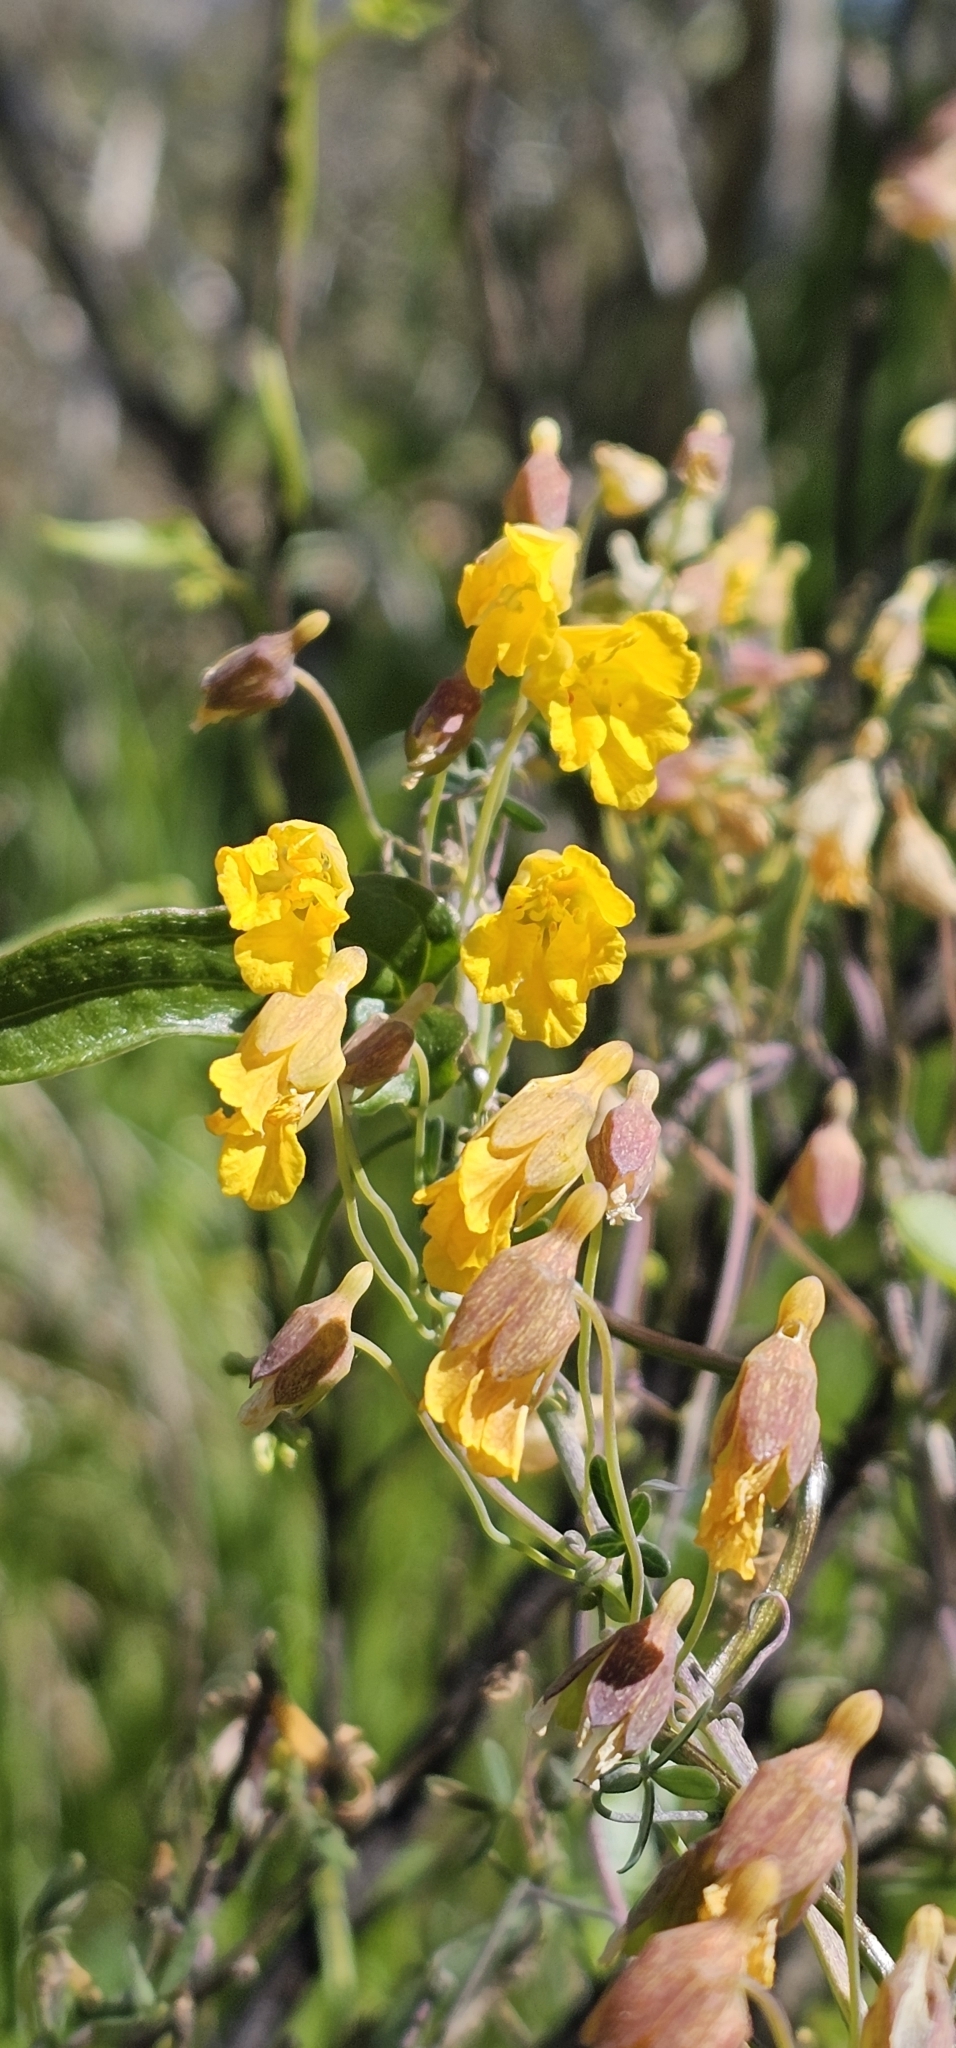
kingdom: Plantae
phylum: Tracheophyta
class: Magnoliopsida
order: Brassicales
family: Tropaeolaceae
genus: Tropaeolum
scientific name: Tropaeolum nuptae-jucundae
